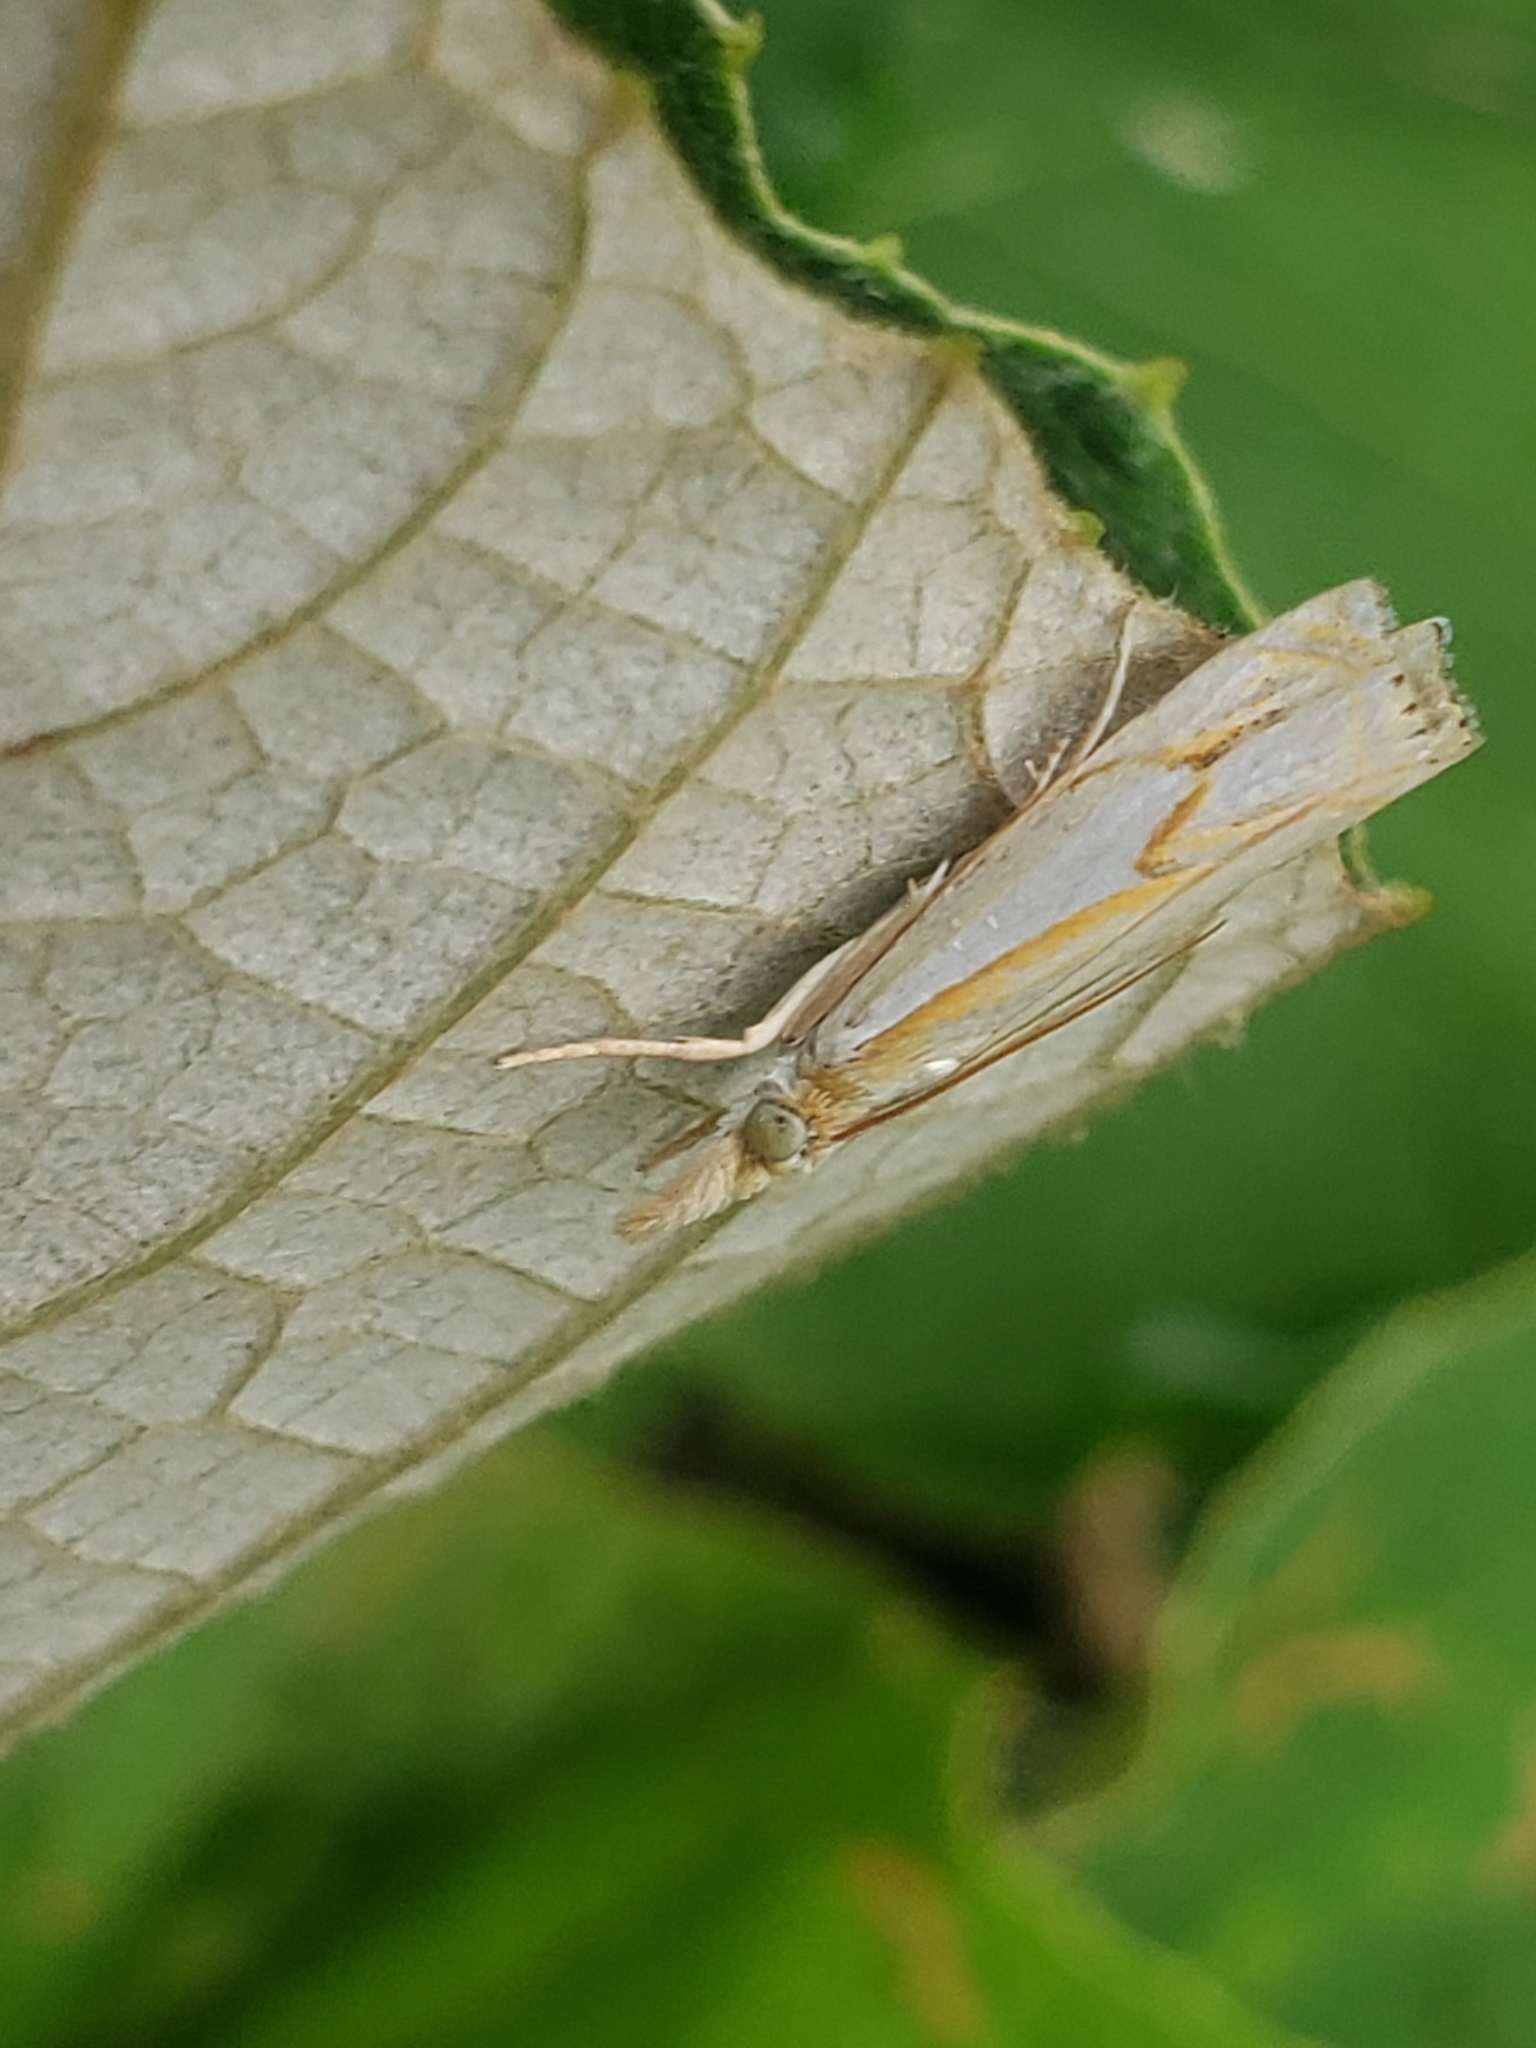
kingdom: Animalia
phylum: Arthropoda
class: Insecta
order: Lepidoptera
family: Crambidae
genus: Crambus
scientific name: Crambus agitatellus
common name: Double-banded grass-veneer
